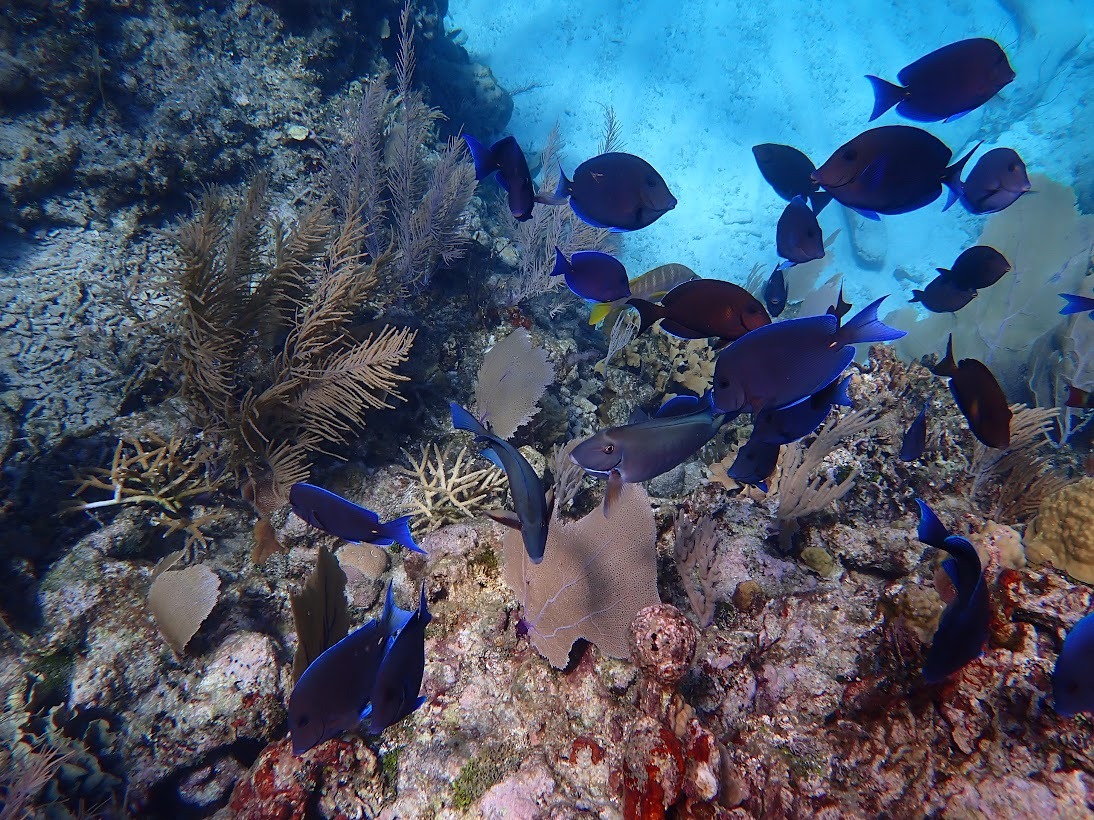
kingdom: Animalia
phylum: Chordata
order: Perciformes
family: Acanthuridae
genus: Acanthurus
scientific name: Acanthurus coeruleus
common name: Blue tang
